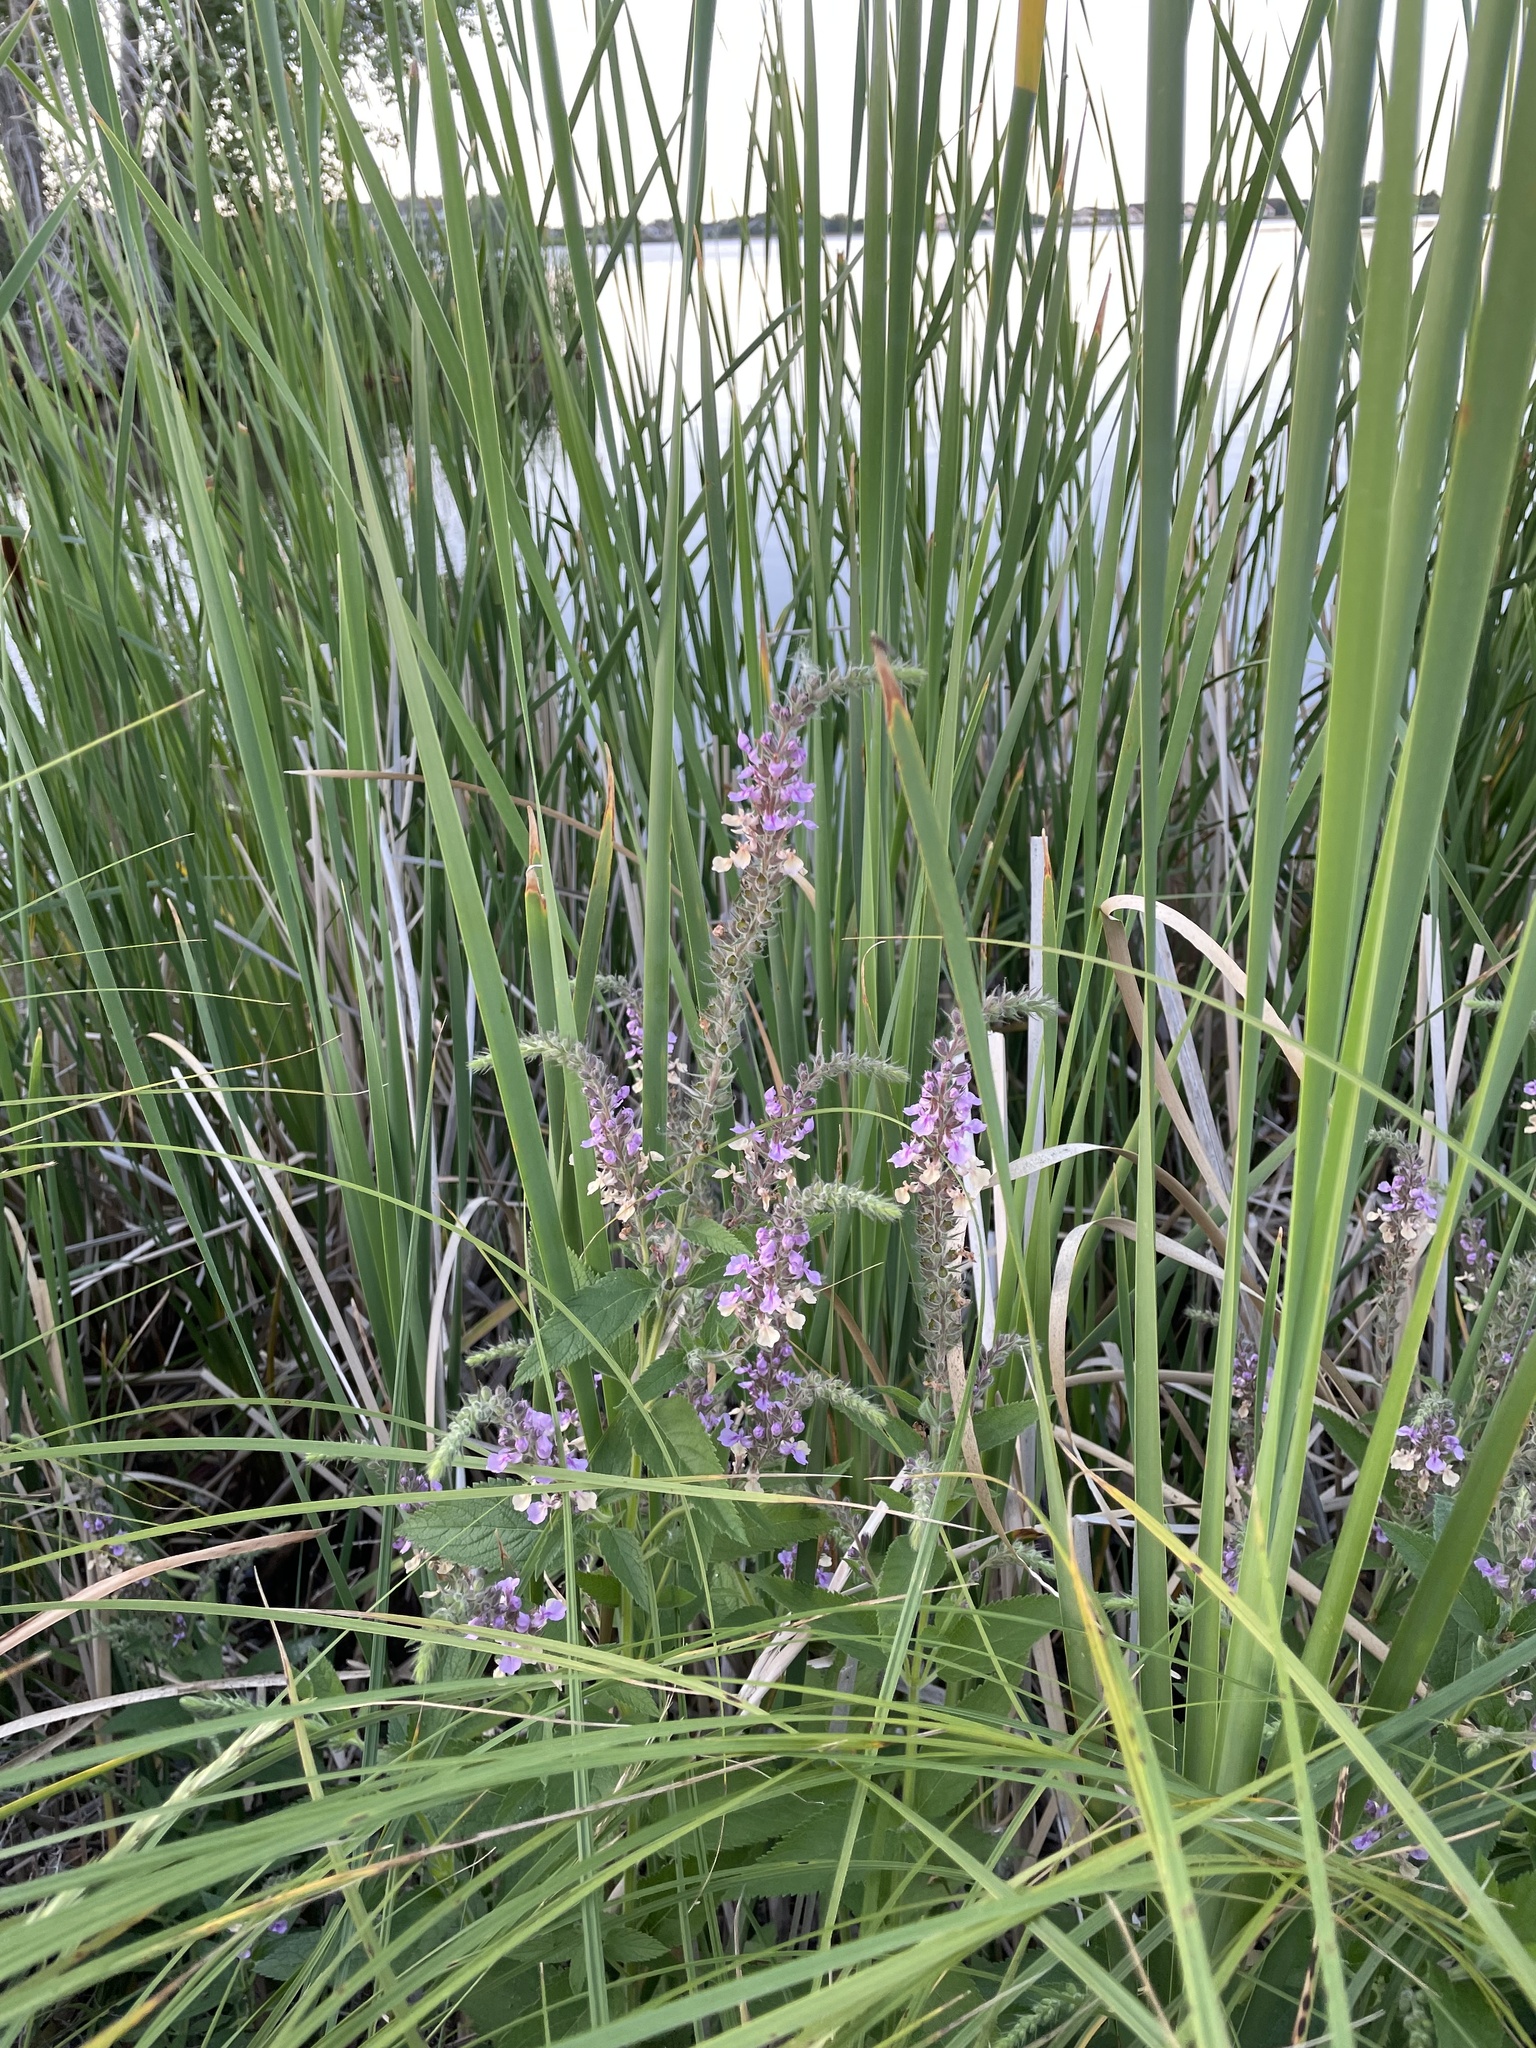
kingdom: Plantae
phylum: Tracheophyta
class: Magnoliopsida
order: Lamiales
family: Lamiaceae
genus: Teucrium
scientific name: Teucrium canadense
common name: American germander
